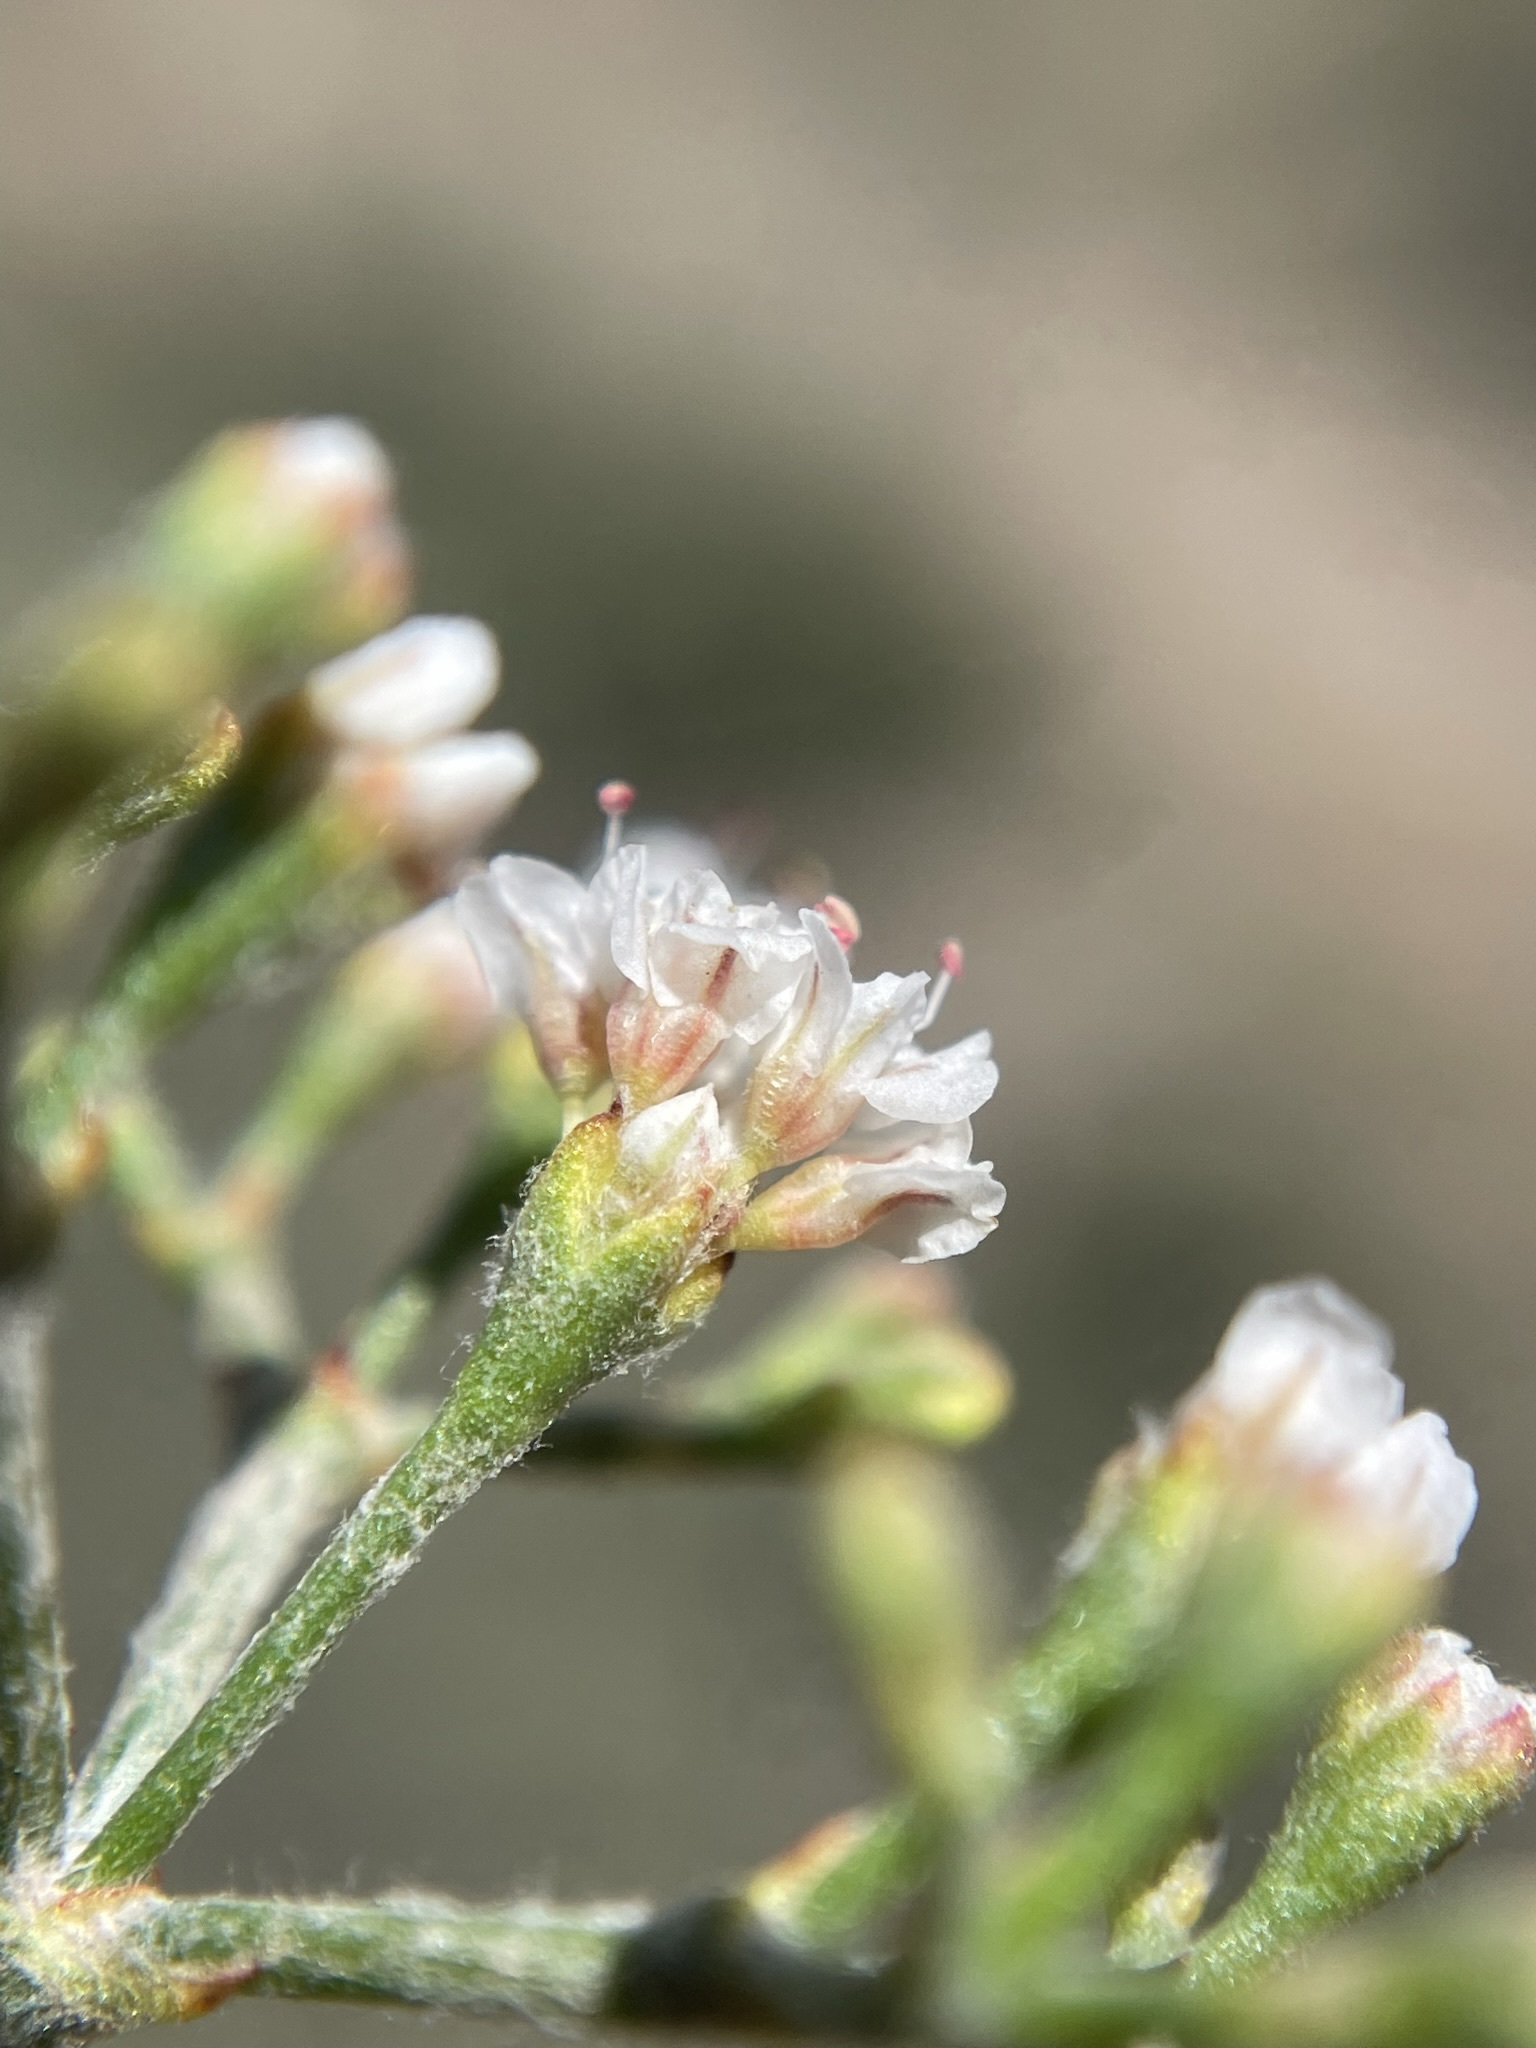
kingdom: Plantae
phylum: Tracheophyta
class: Magnoliopsida
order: Caryophyllales
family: Polygonaceae
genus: Eriogonum
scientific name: Eriogonum microtheca
